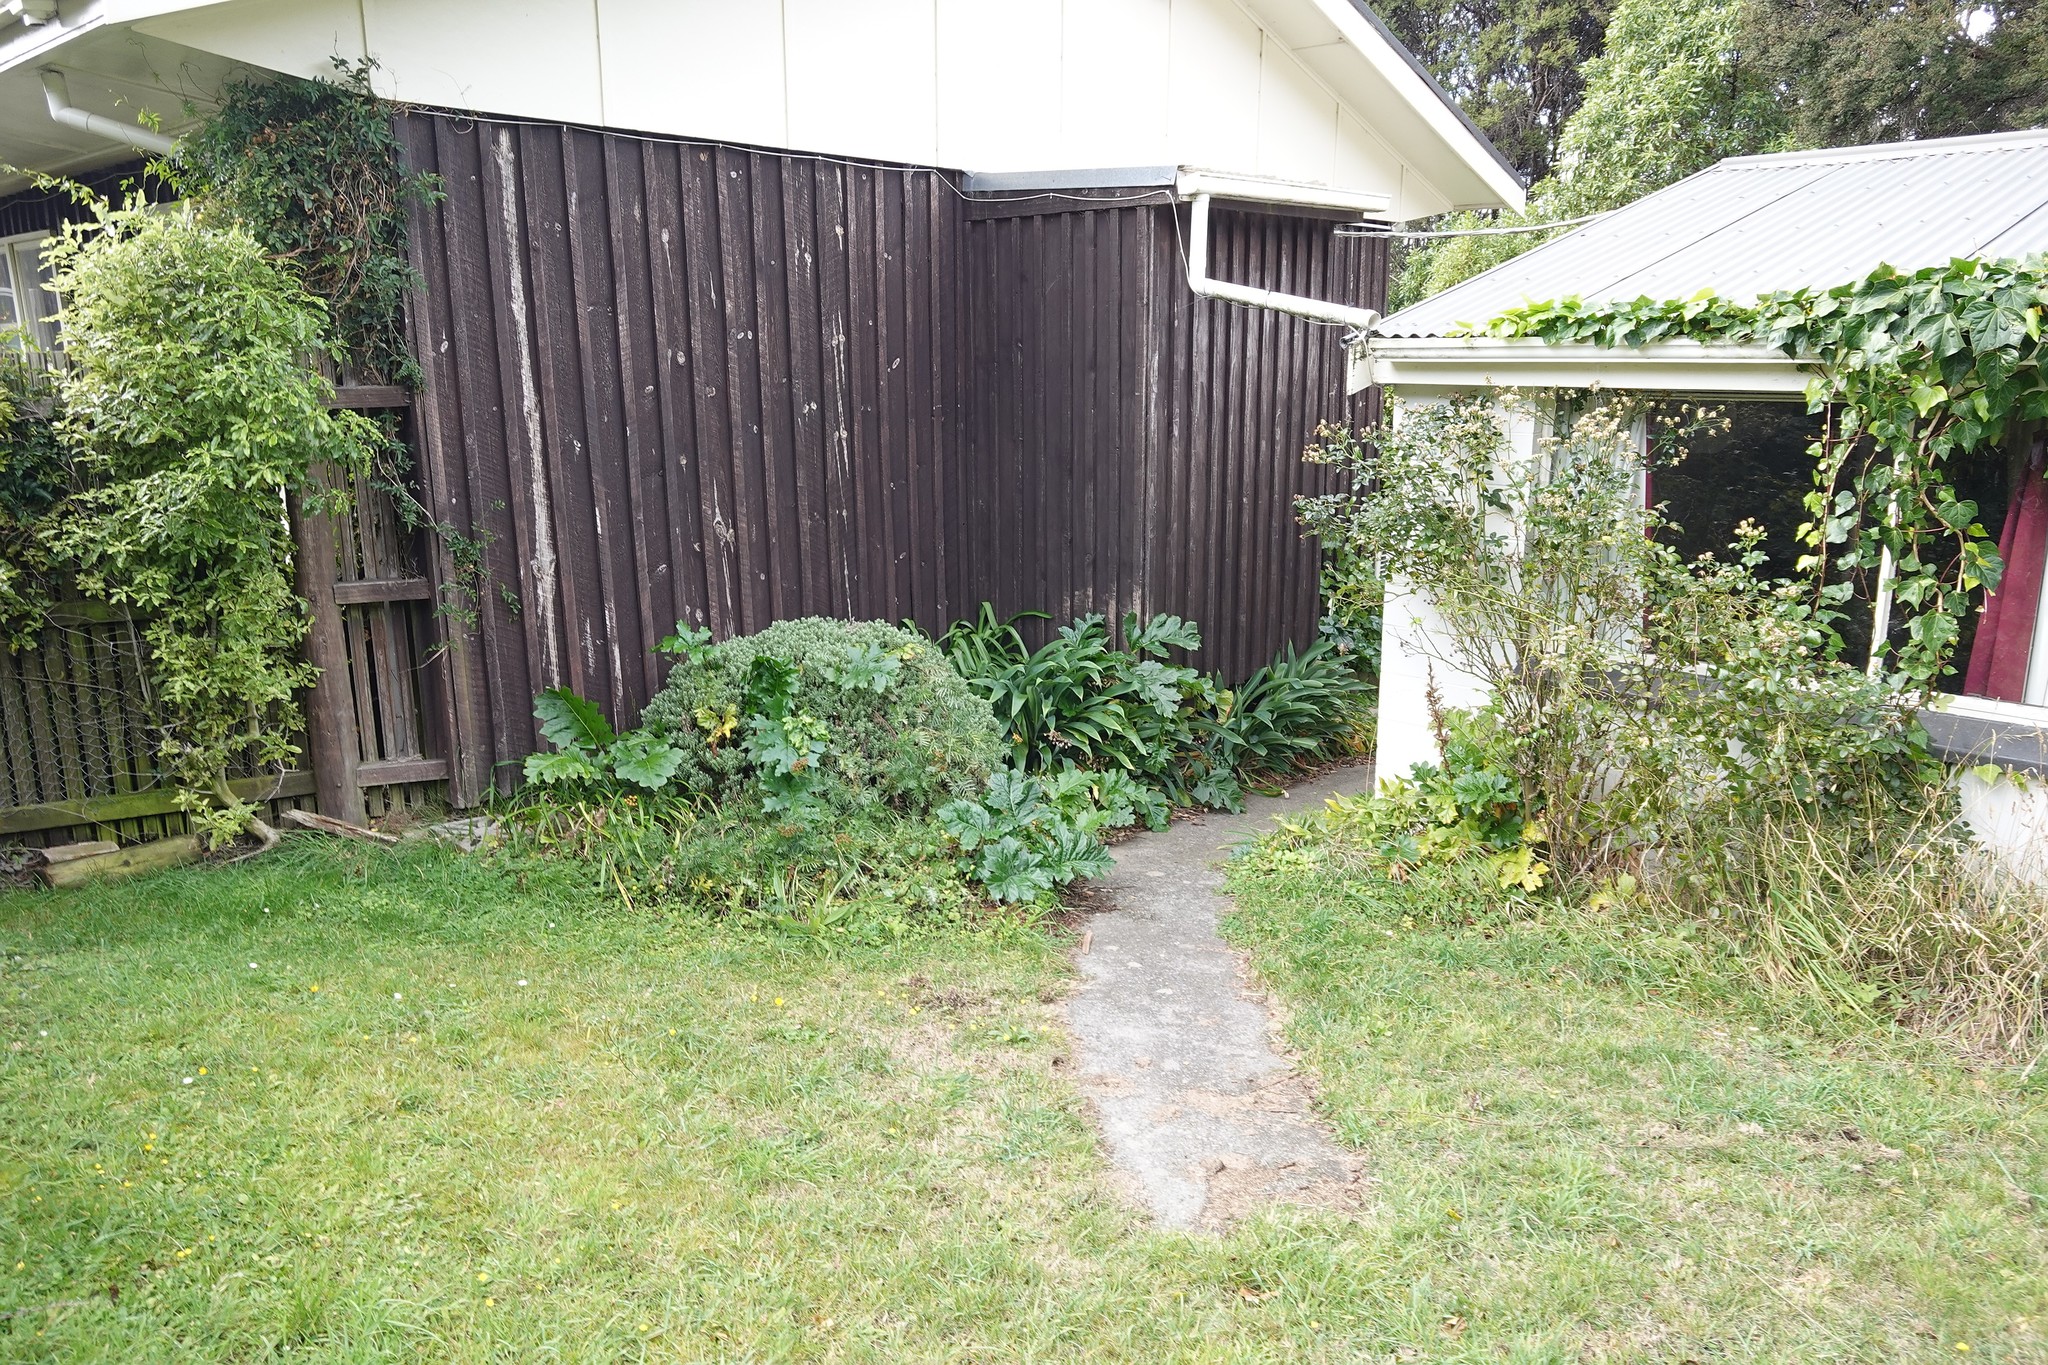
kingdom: Plantae
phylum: Tracheophyta
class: Magnoliopsida
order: Lamiales
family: Acanthaceae
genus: Acanthus
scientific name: Acanthus mollis
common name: Bear's-breech
